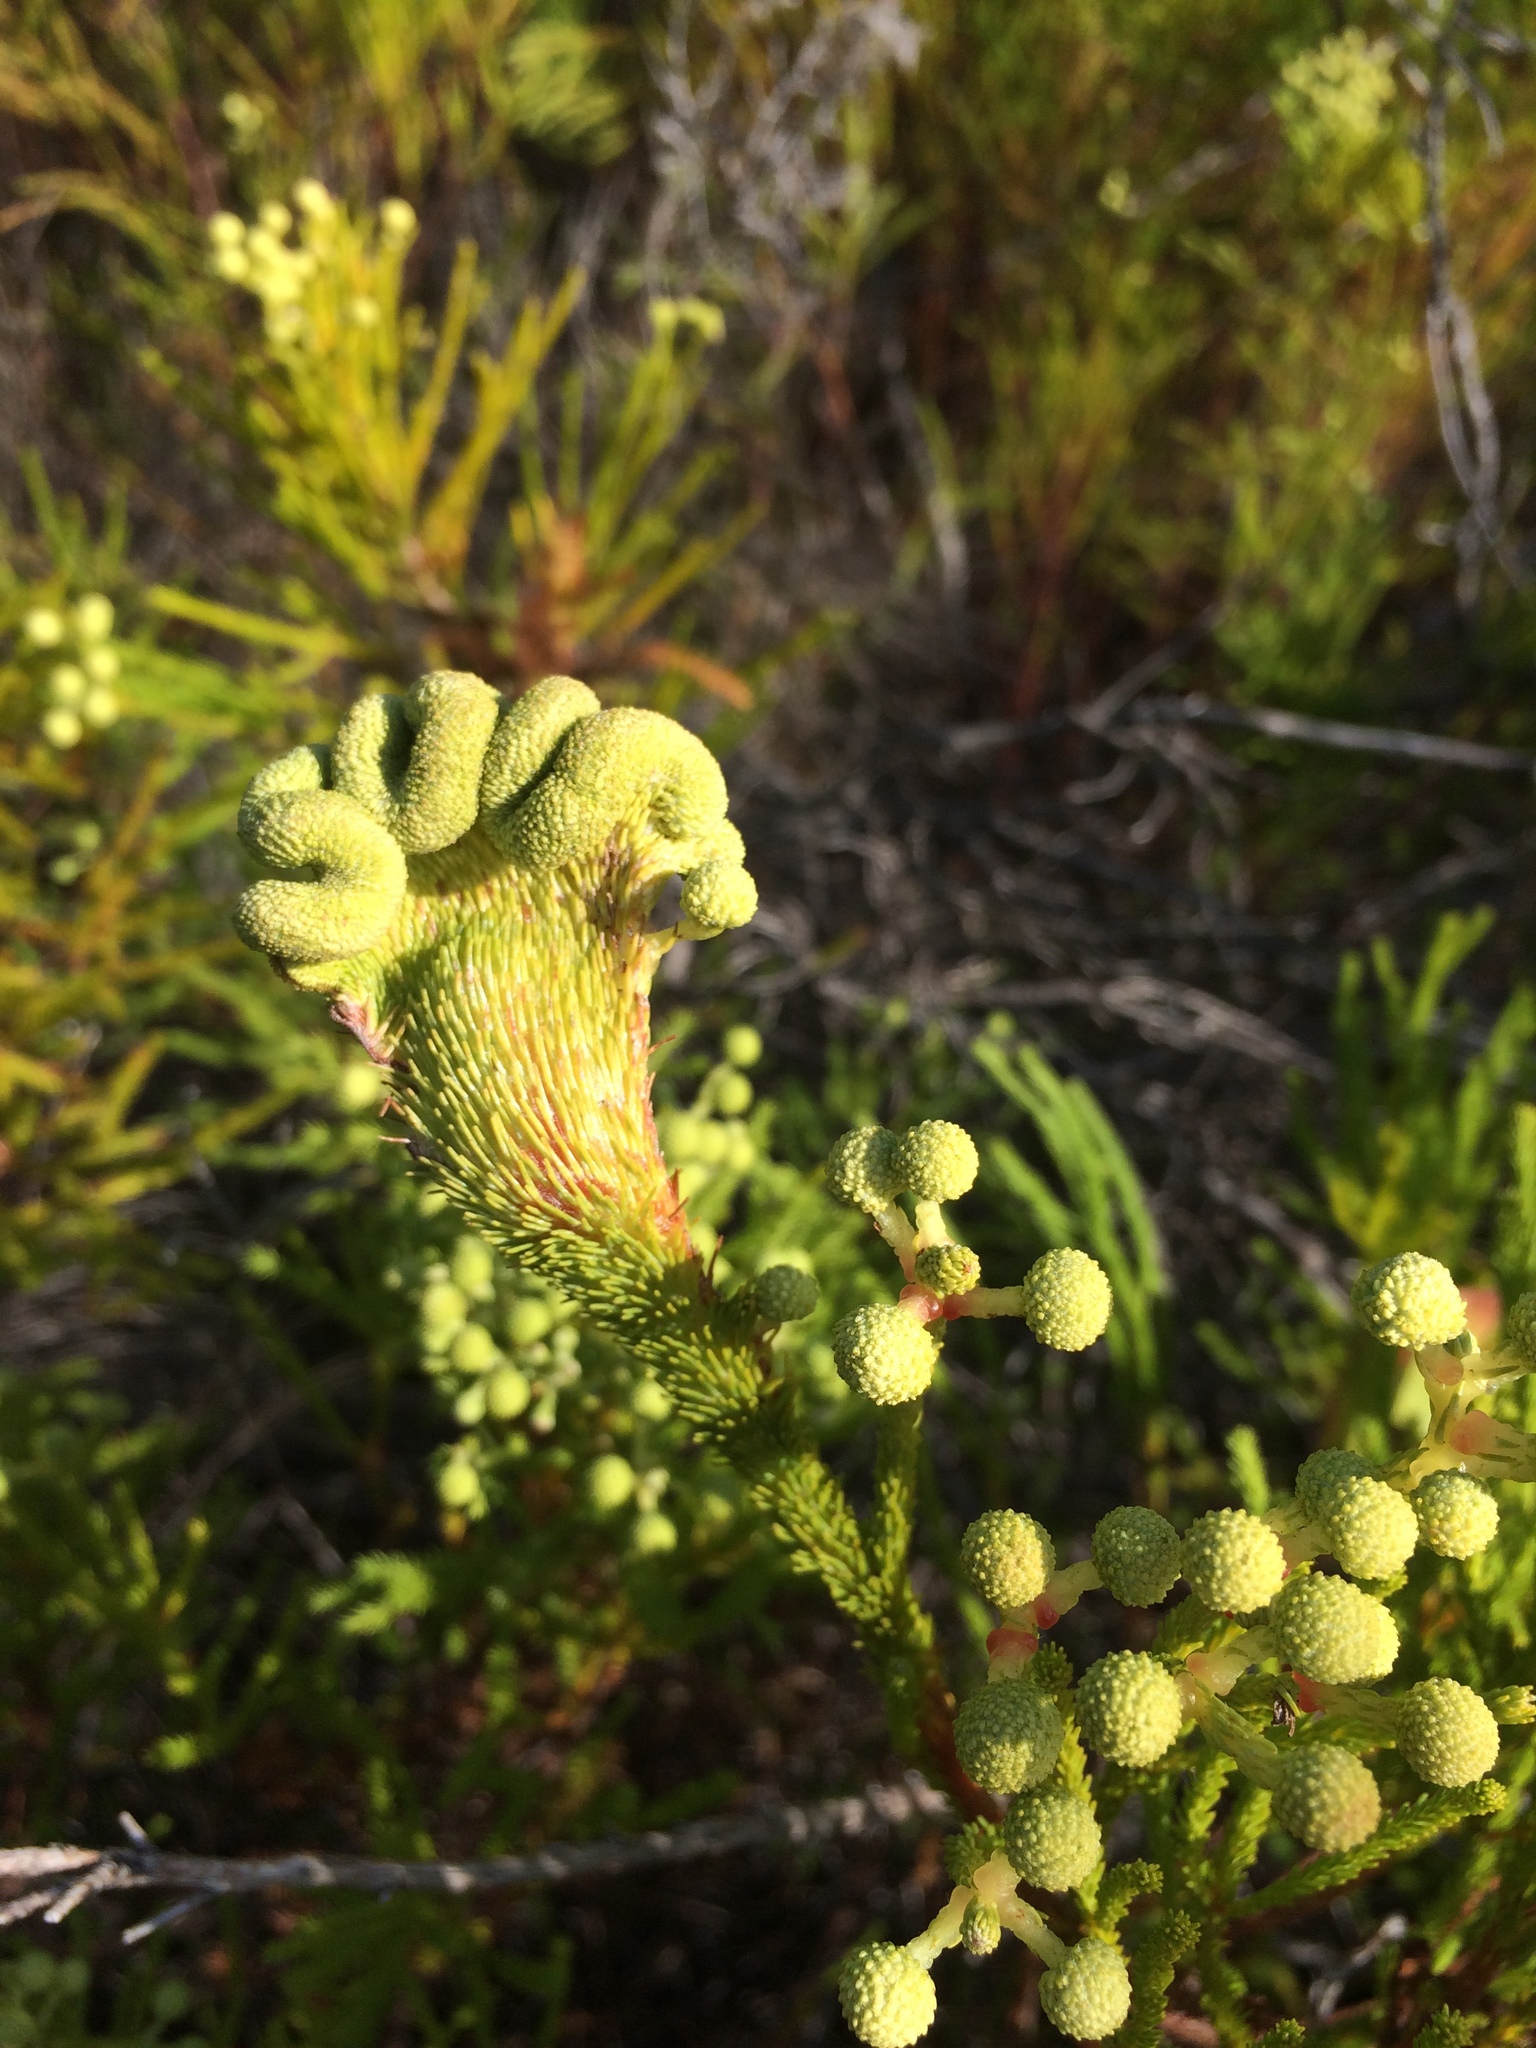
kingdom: Plantae
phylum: Tracheophyta
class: Magnoliopsida
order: Bruniales
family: Bruniaceae
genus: Berzelia
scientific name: Berzelia lanuginosa
